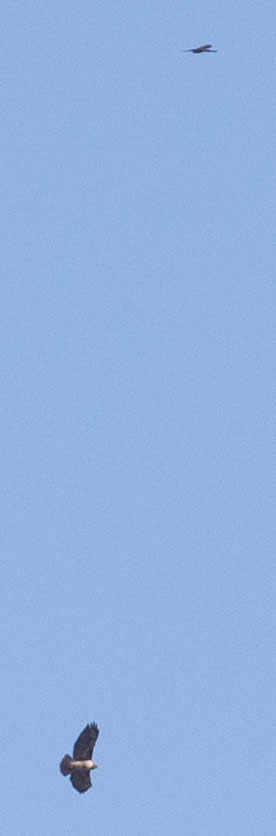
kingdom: Animalia
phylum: Chordata
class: Aves
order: Accipitriformes
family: Accipitridae
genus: Buteo
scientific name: Buteo jamaicensis
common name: Red-tailed hawk
